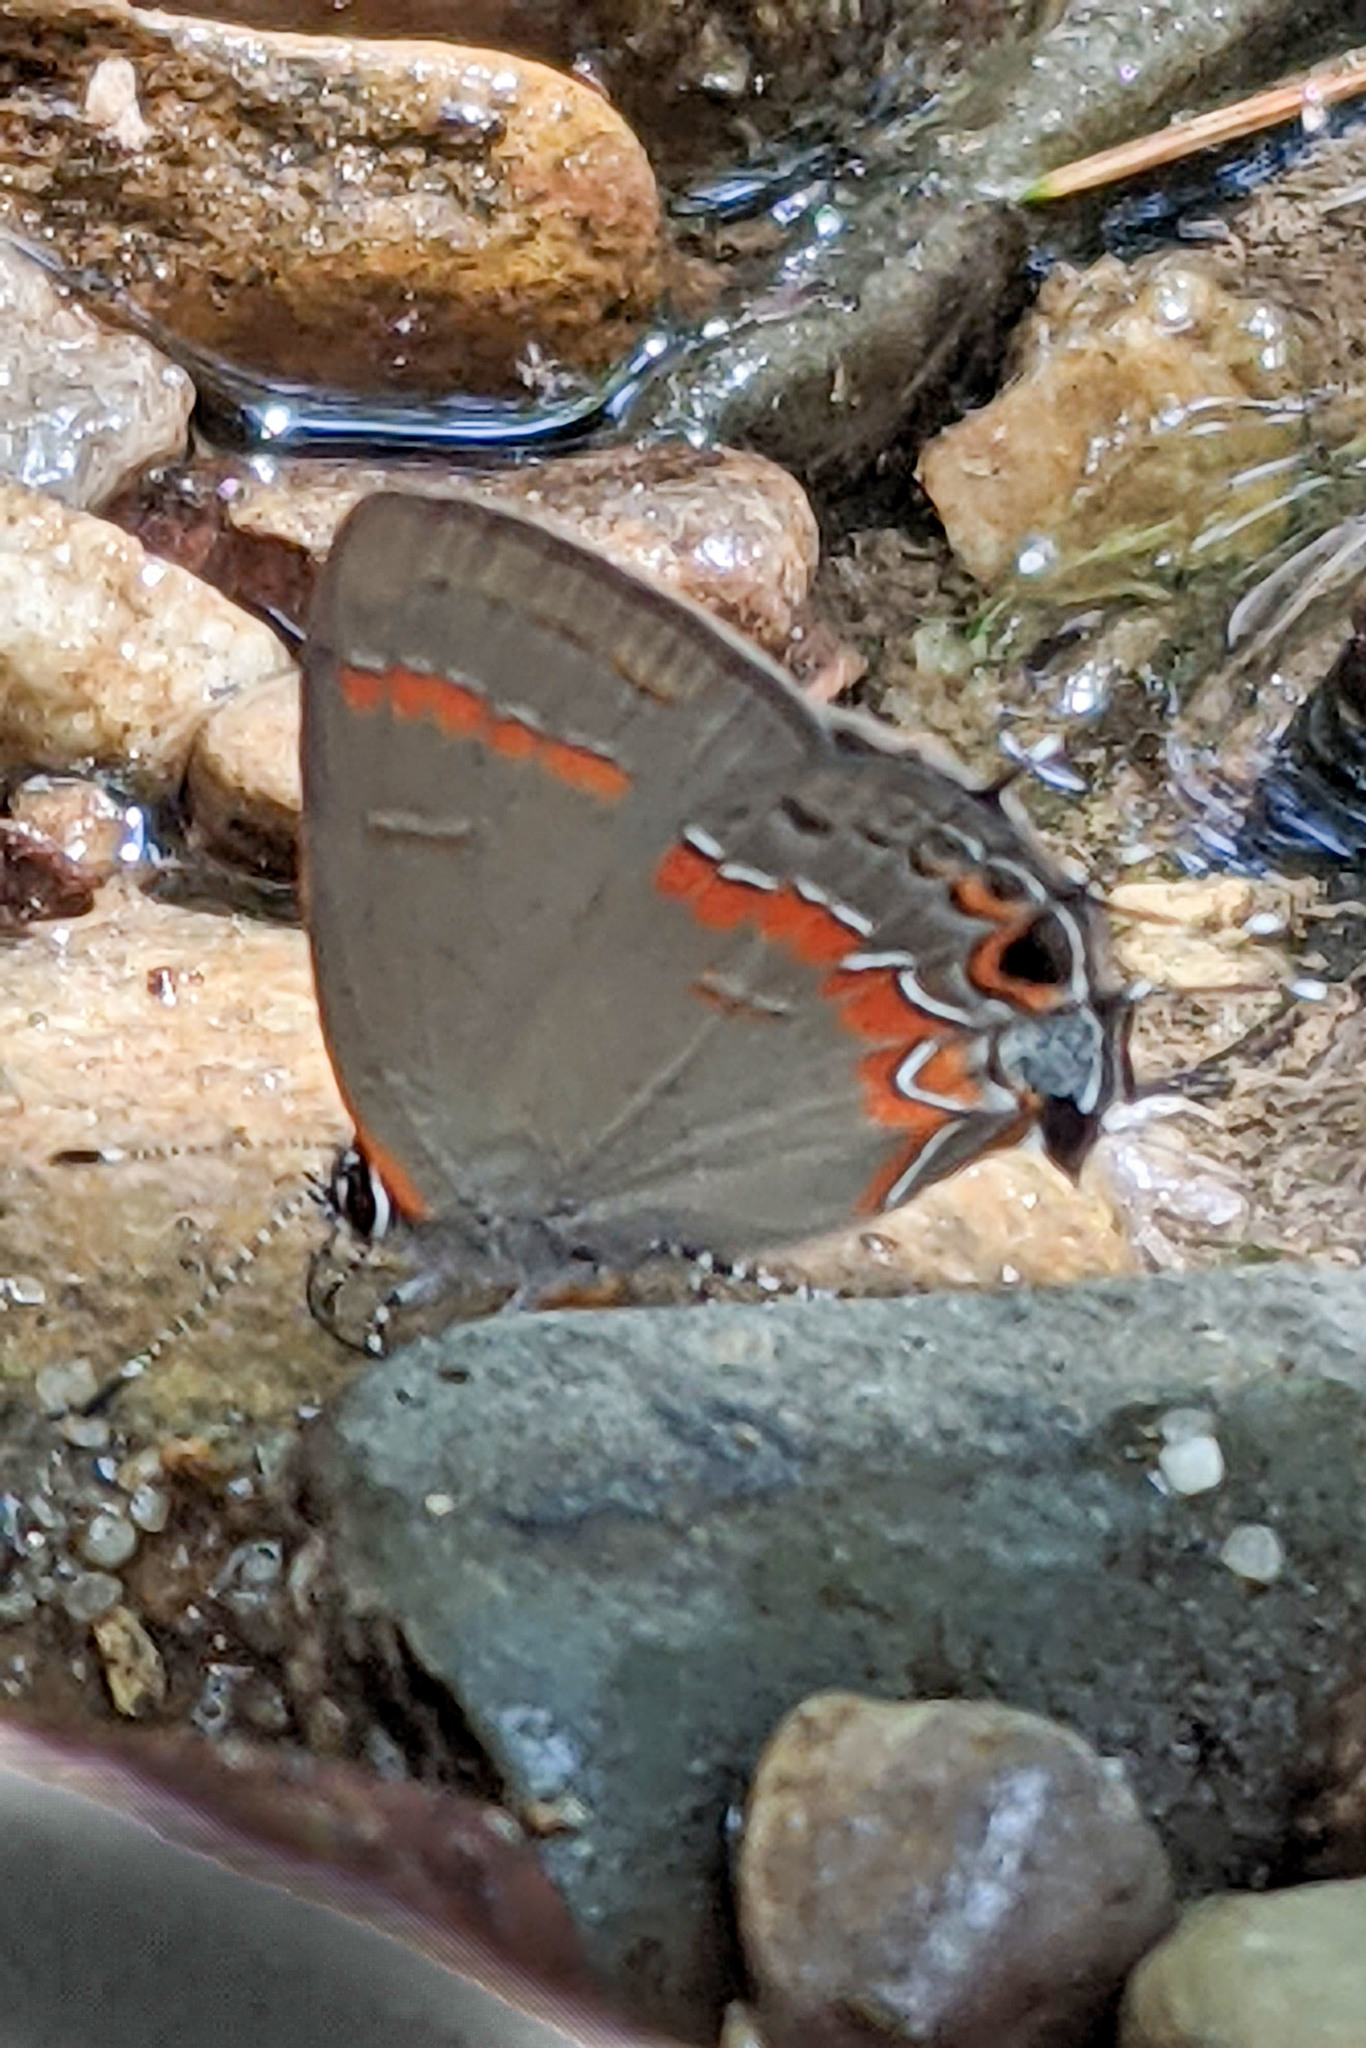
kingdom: Animalia
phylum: Arthropoda
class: Insecta
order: Lepidoptera
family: Lycaenidae
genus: Calycopis
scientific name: Calycopis cecrops
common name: Red-banded hairstreak
